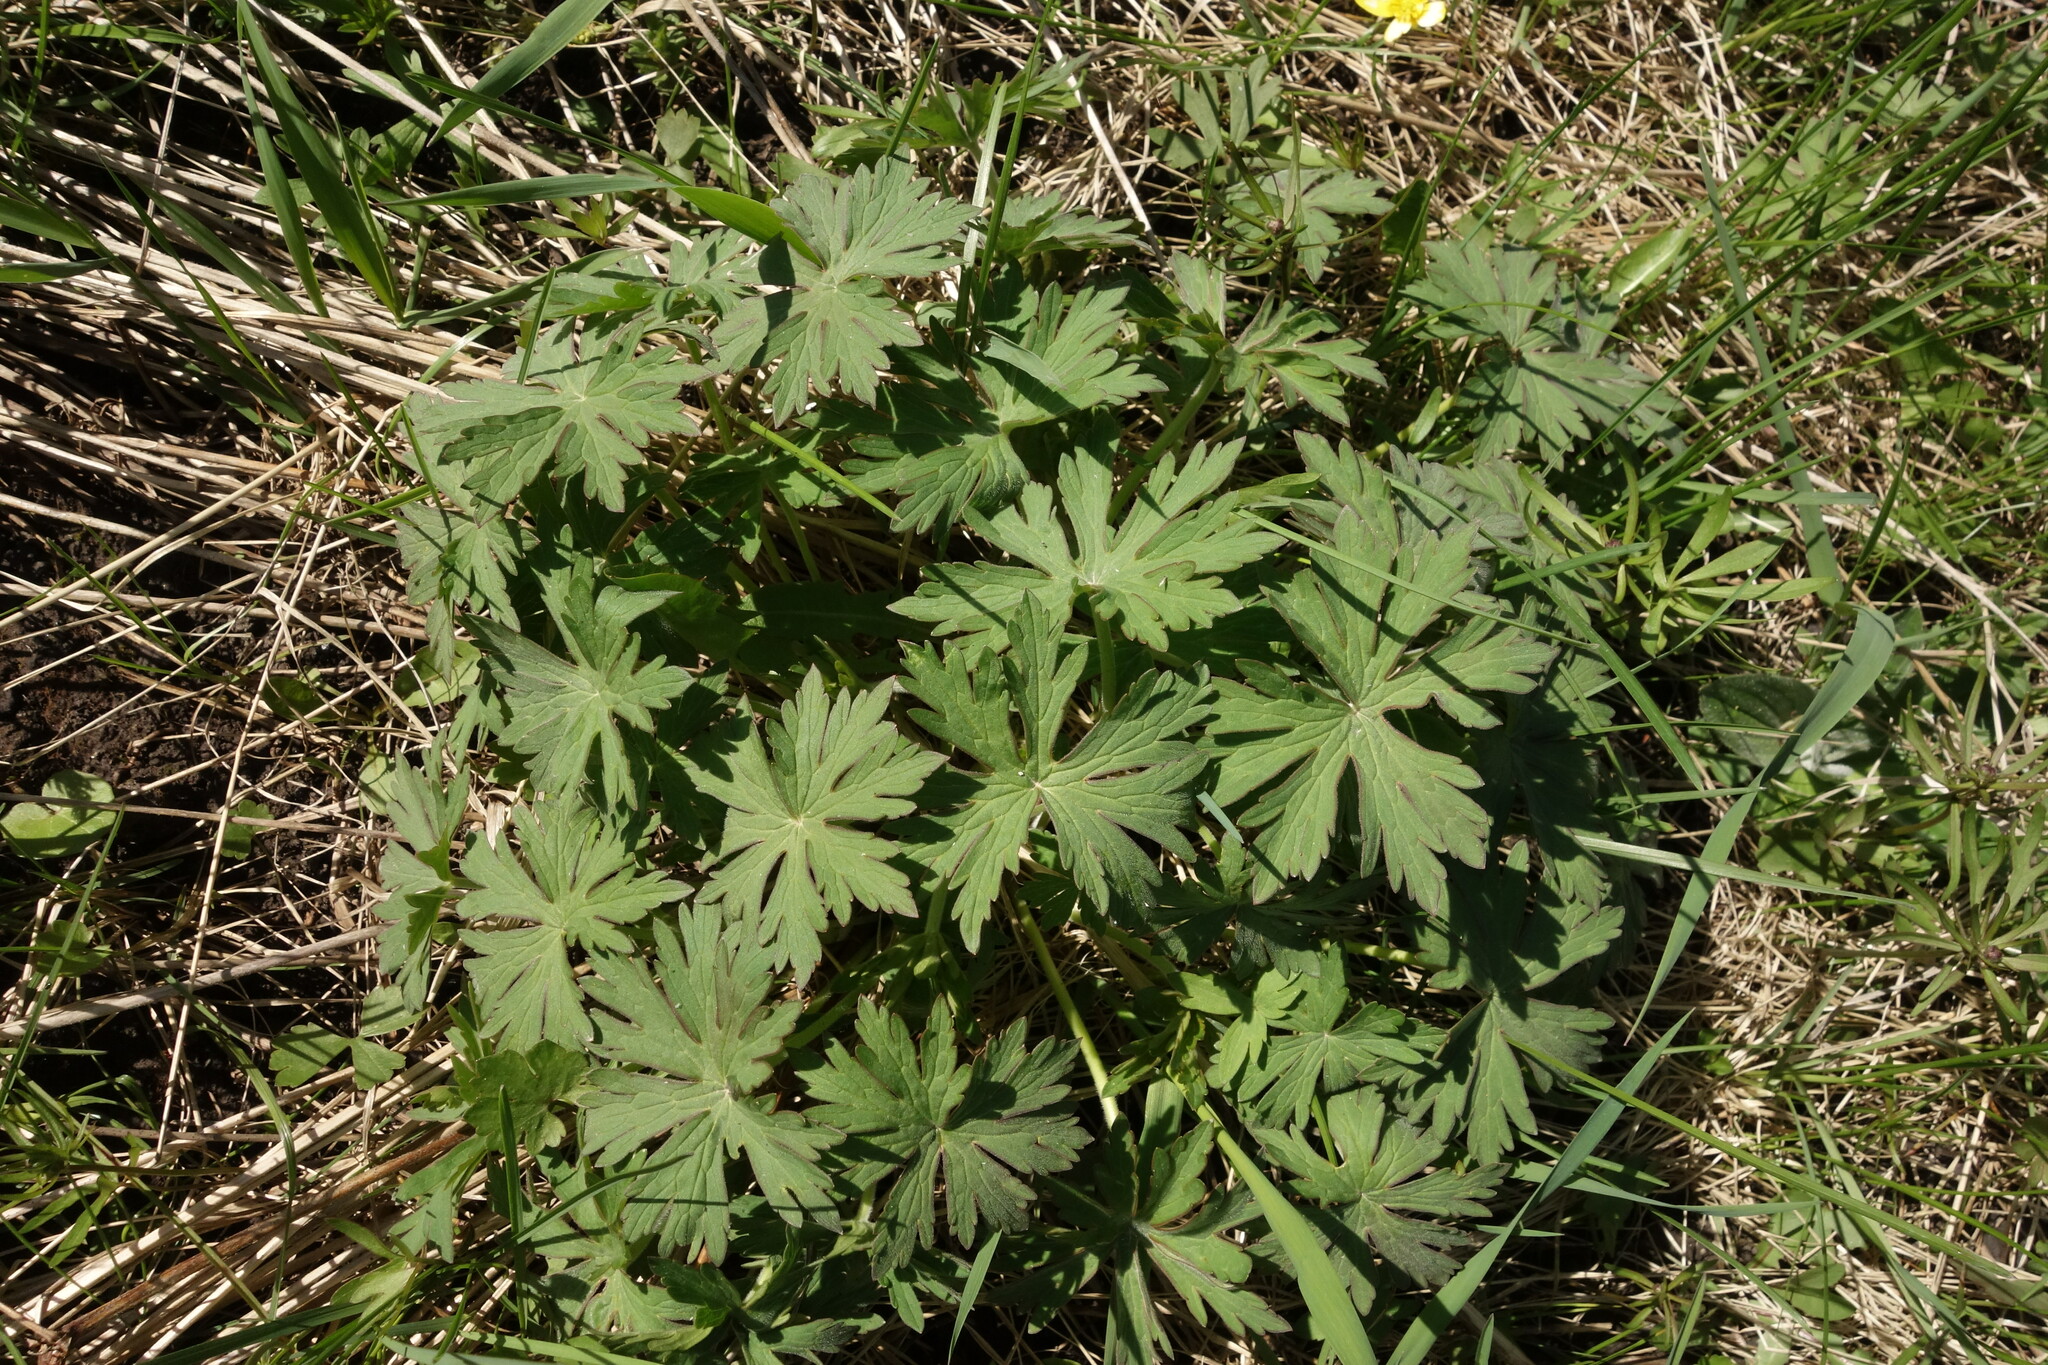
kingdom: Plantae
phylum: Tracheophyta
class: Magnoliopsida
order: Geraniales
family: Geraniaceae
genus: Geranium
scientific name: Geranium collinum
